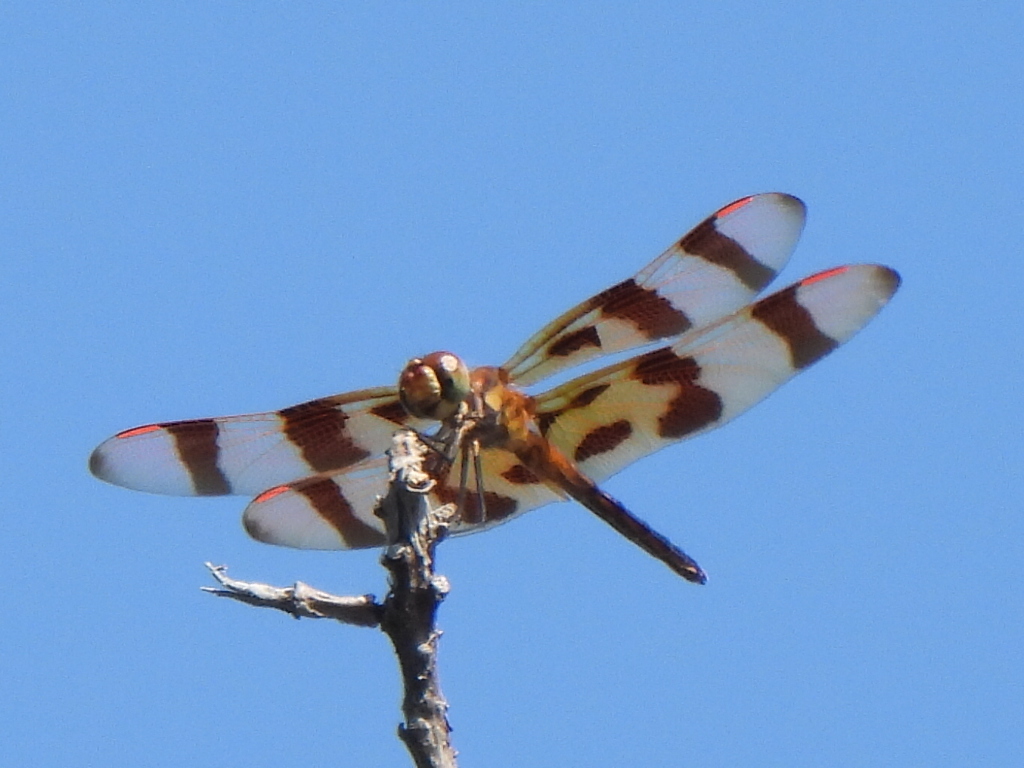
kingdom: Animalia
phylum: Arthropoda
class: Insecta
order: Odonata
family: Libellulidae
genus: Celithemis
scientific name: Celithemis eponina
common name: Halloween pennant
